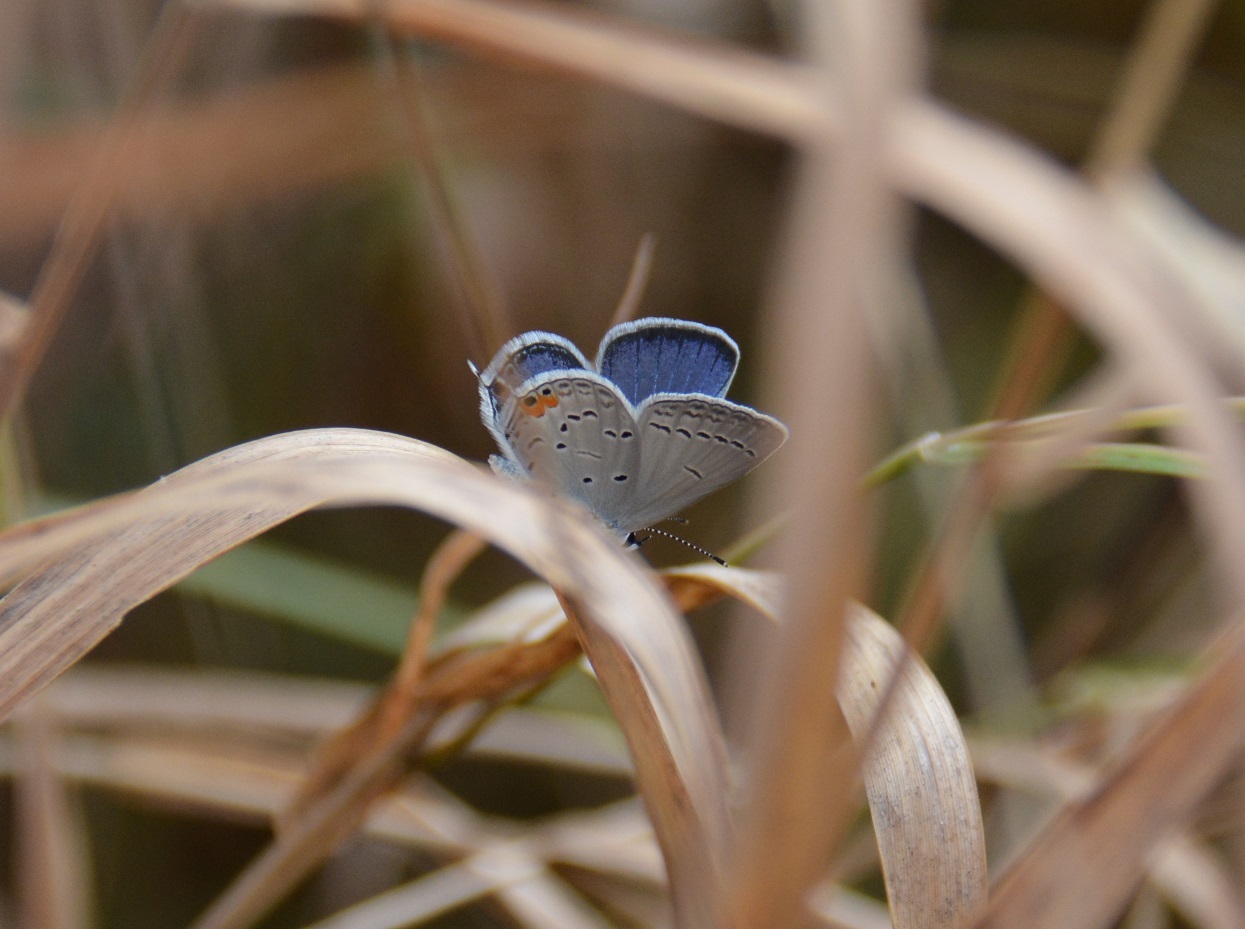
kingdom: Animalia
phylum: Arthropoda
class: Insecta
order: Lepidoptera
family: Lycaenidae
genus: Elkalyce
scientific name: Elkalyce comyntas
